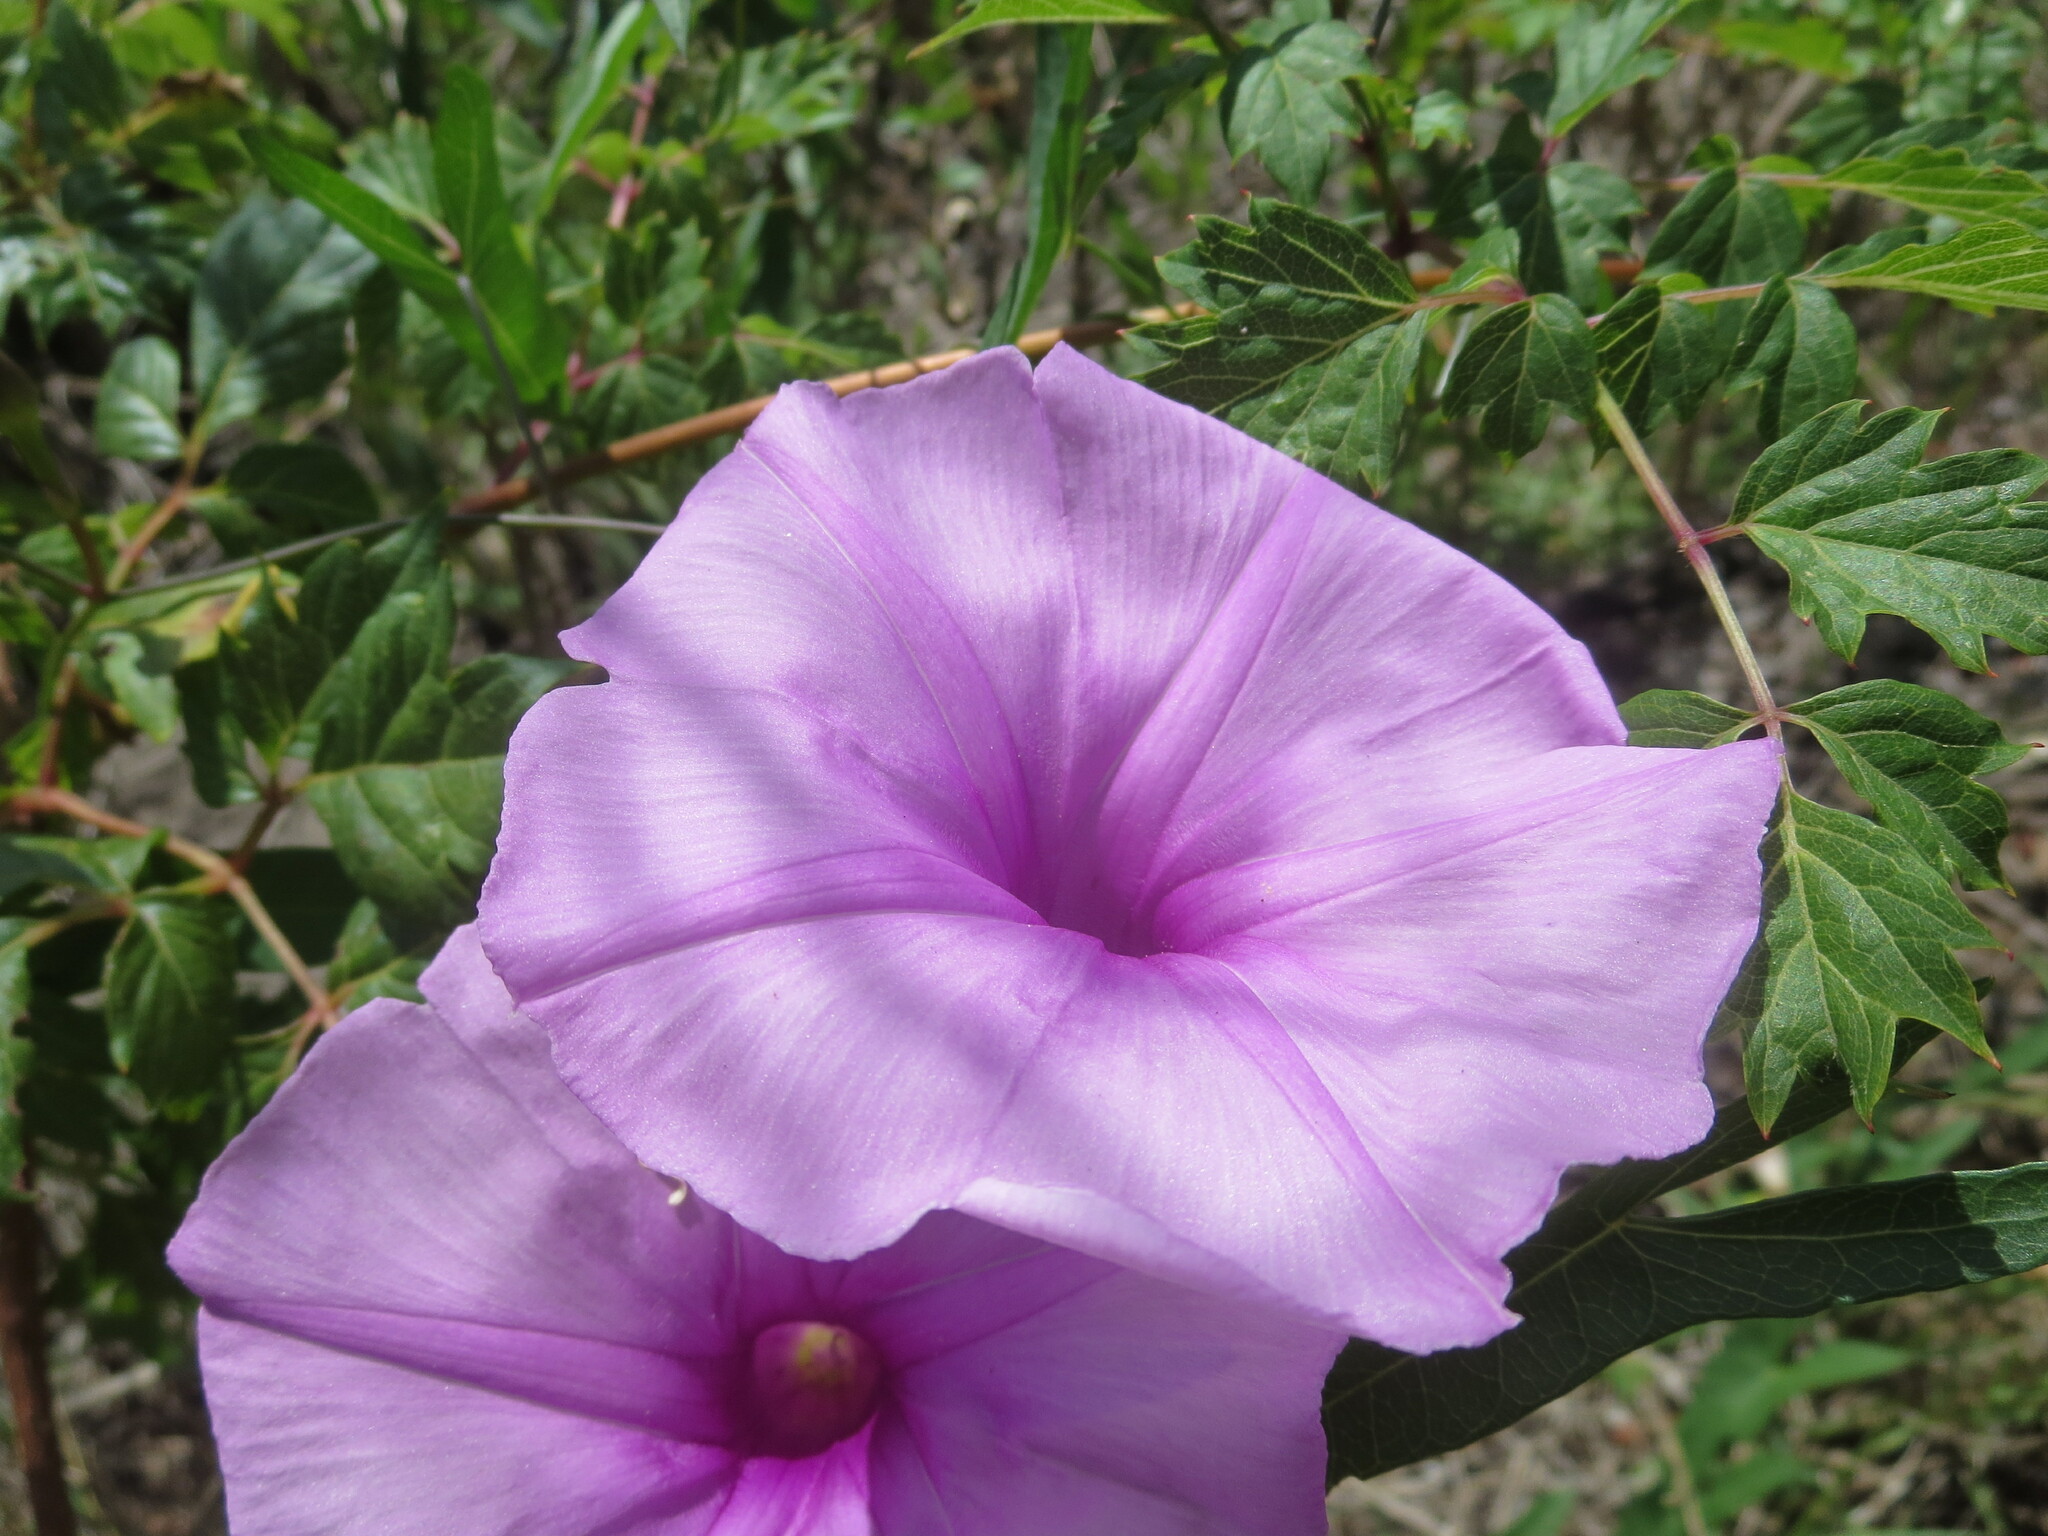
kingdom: Plantae
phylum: Tracheophyta
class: Magnoliopsida
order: Solanales
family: Convolvulaceae
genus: Ipomoea
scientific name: Ipomoea sagittata
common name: Saltmarsh morning glory
